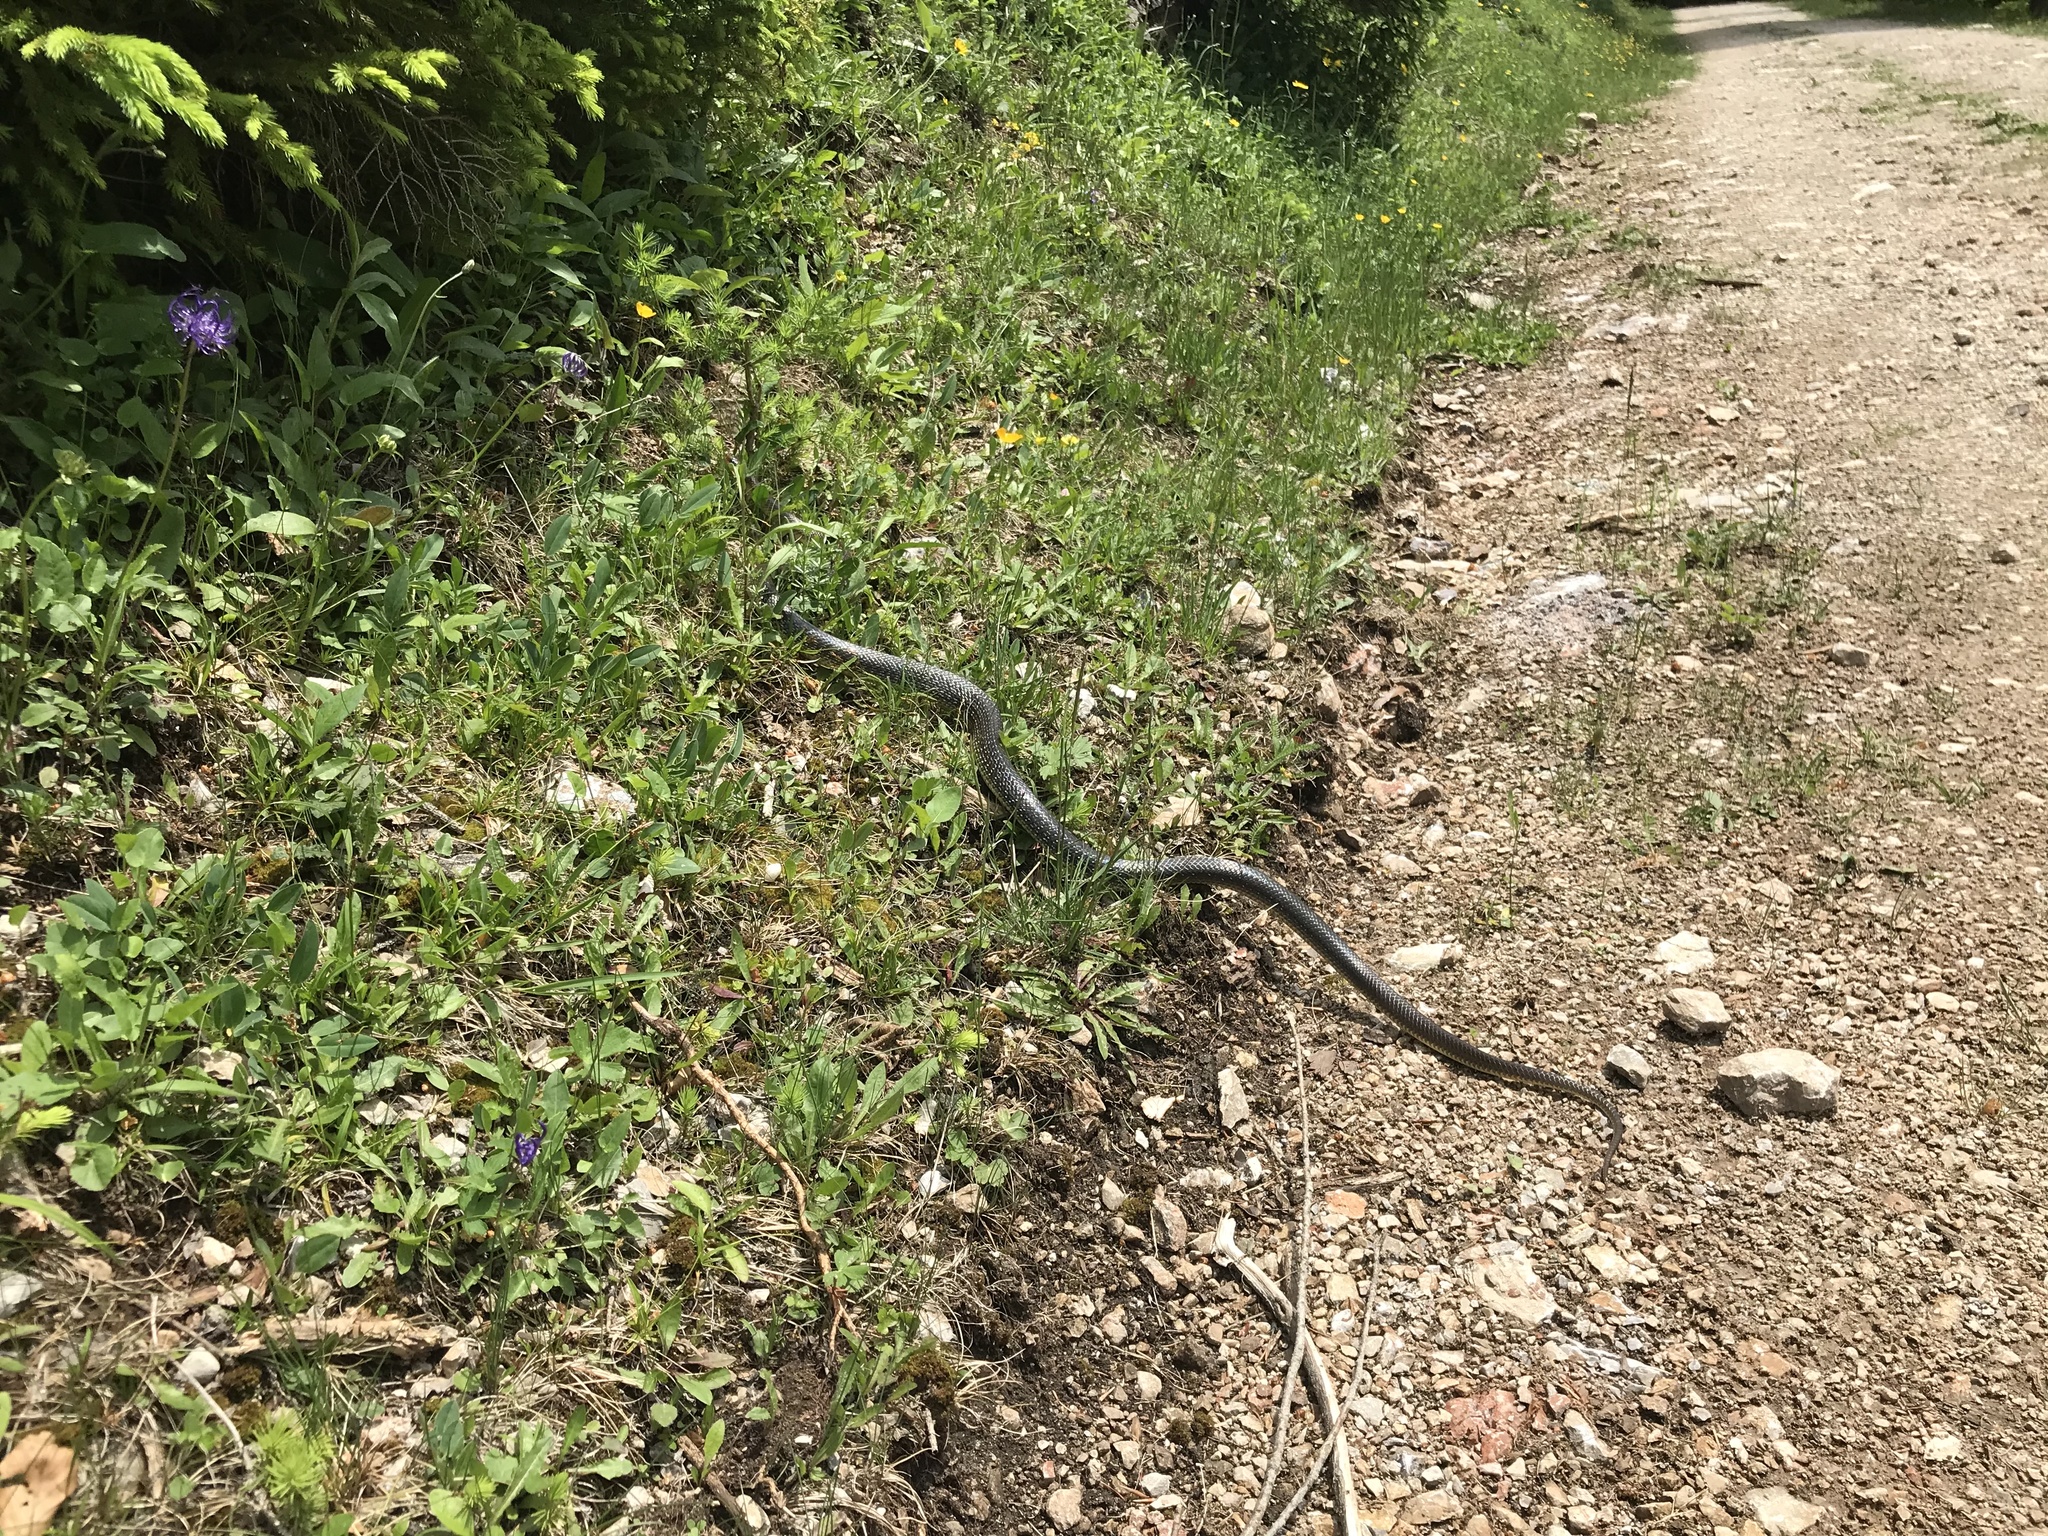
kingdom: Animalia
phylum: Chordata
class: Squamata
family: Colubridae
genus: Zamenis
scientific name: Zamenis longissimus
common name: Aesculapean snake
